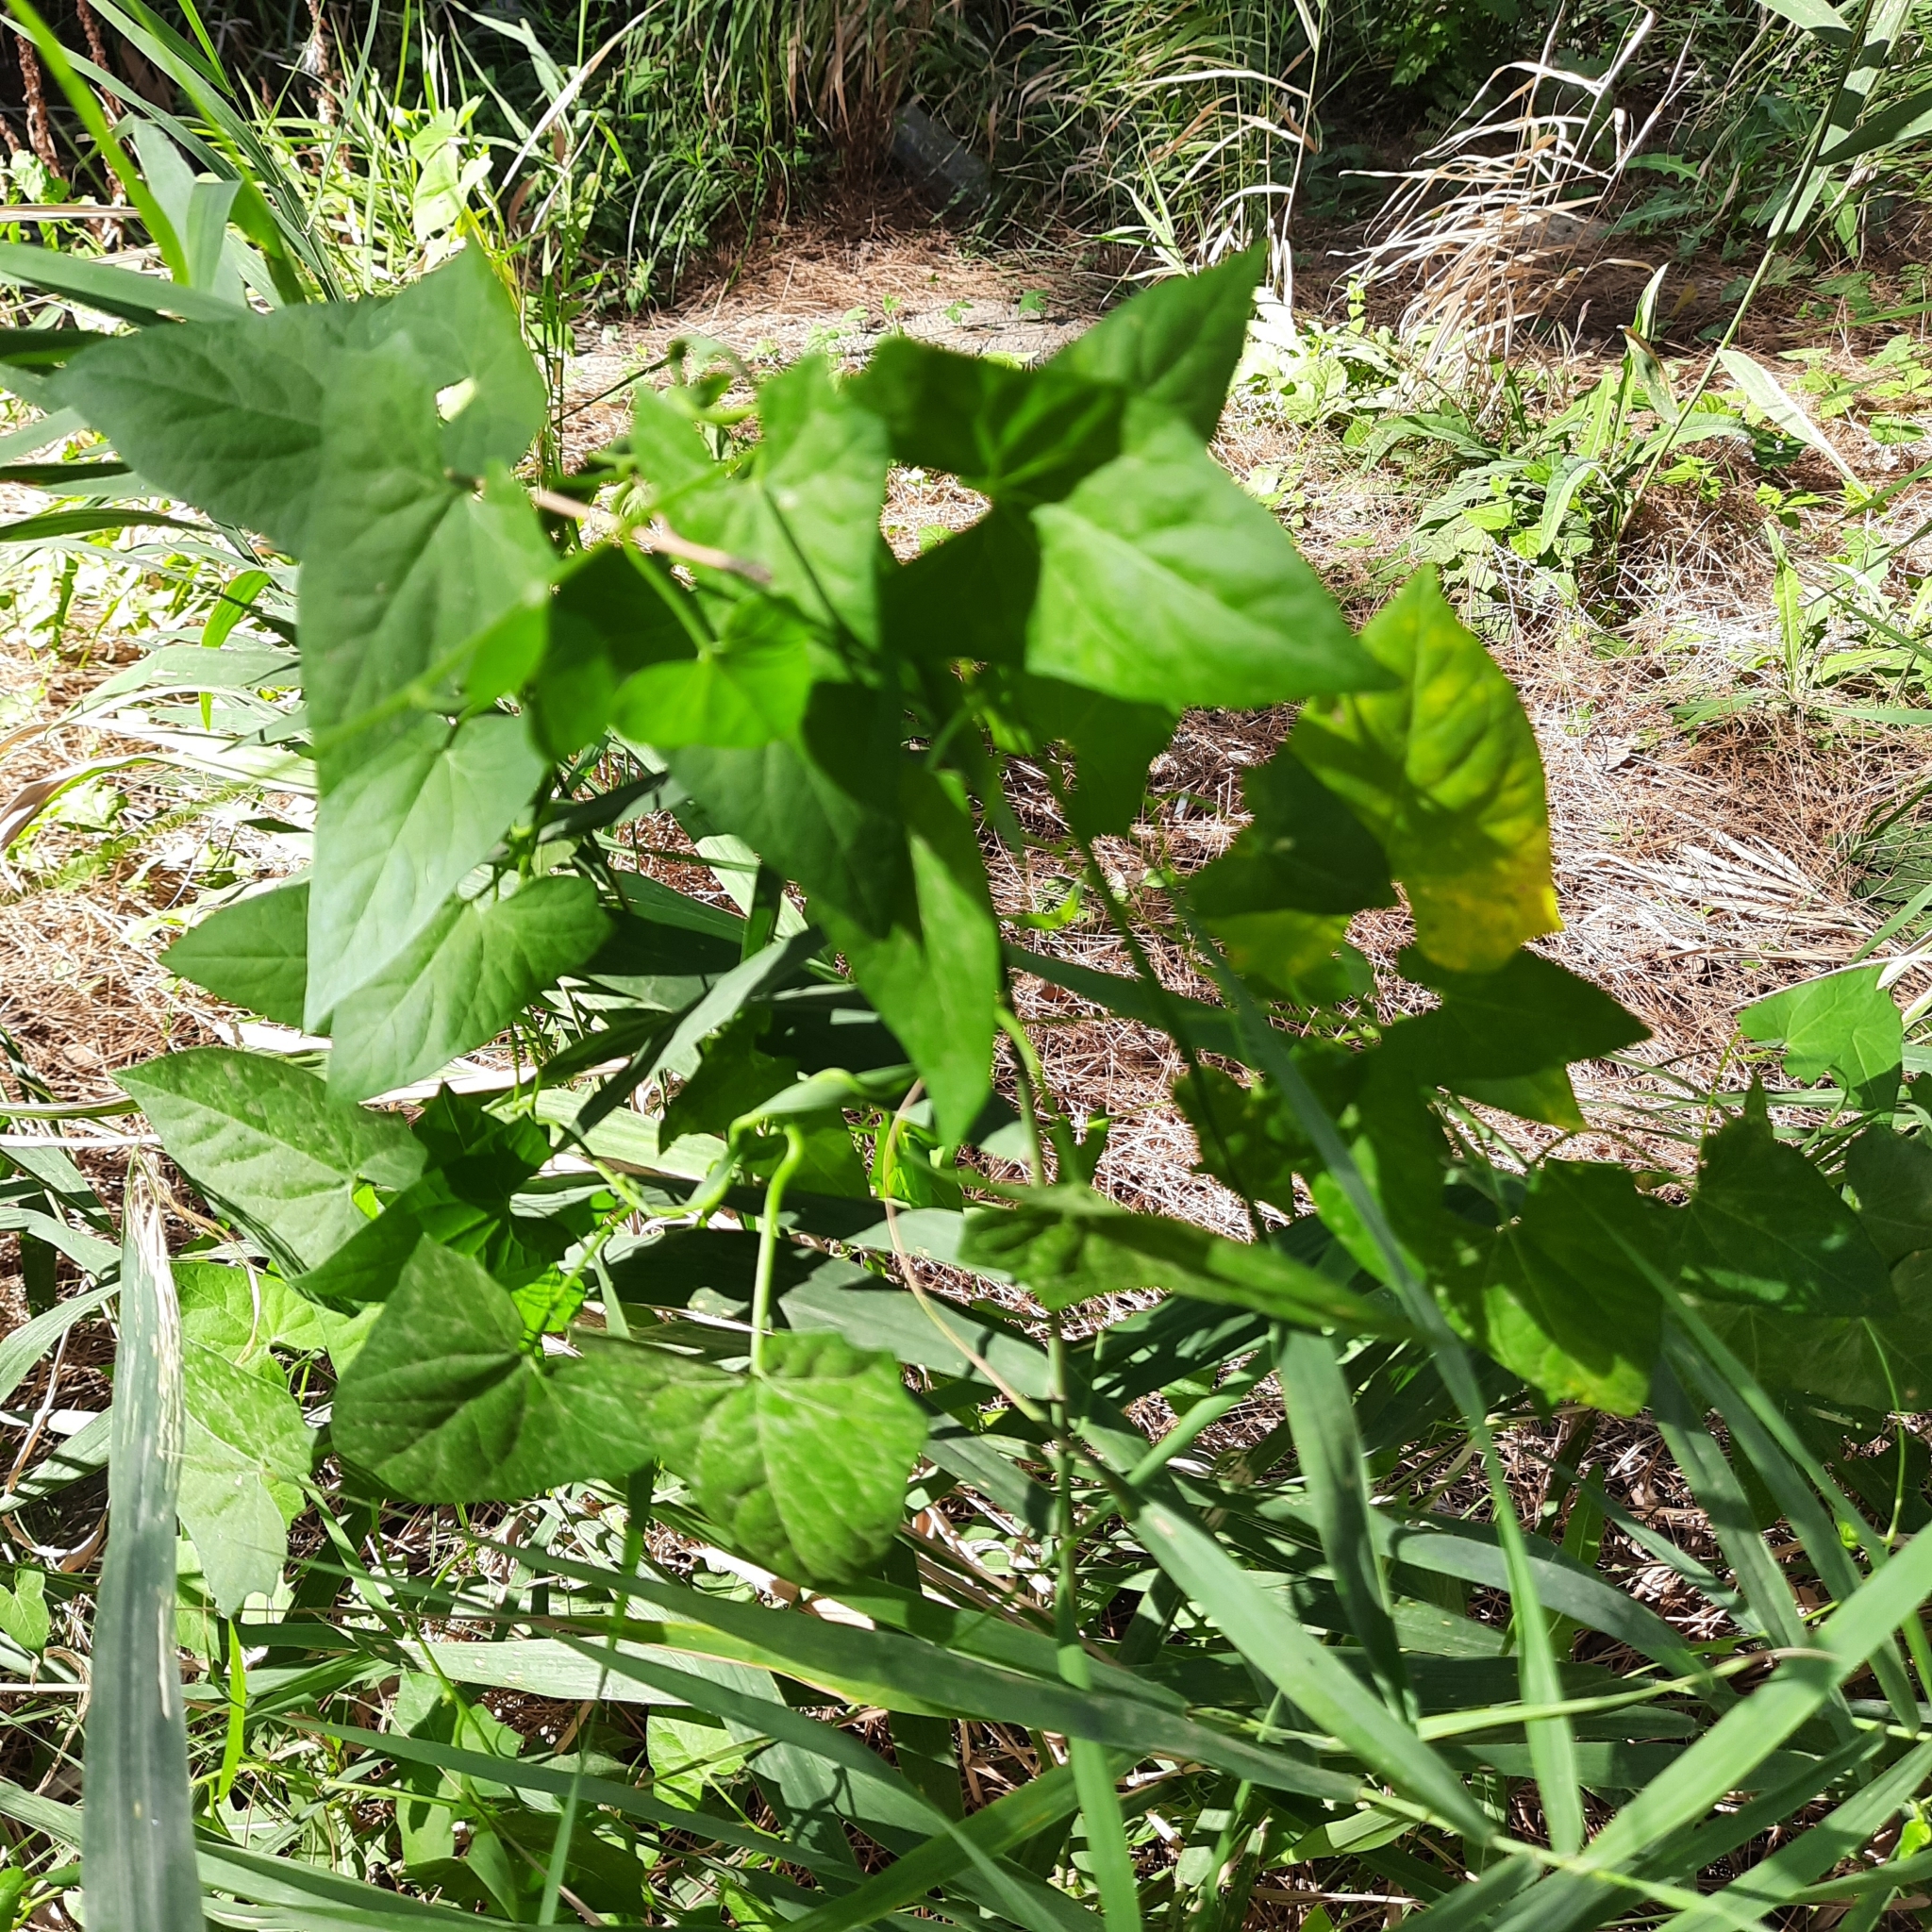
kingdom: Plantae
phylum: Tracheophyta
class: Magnoliopsida
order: Solanales
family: Convolvulaceae
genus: Calystegia
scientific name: Calystegia
